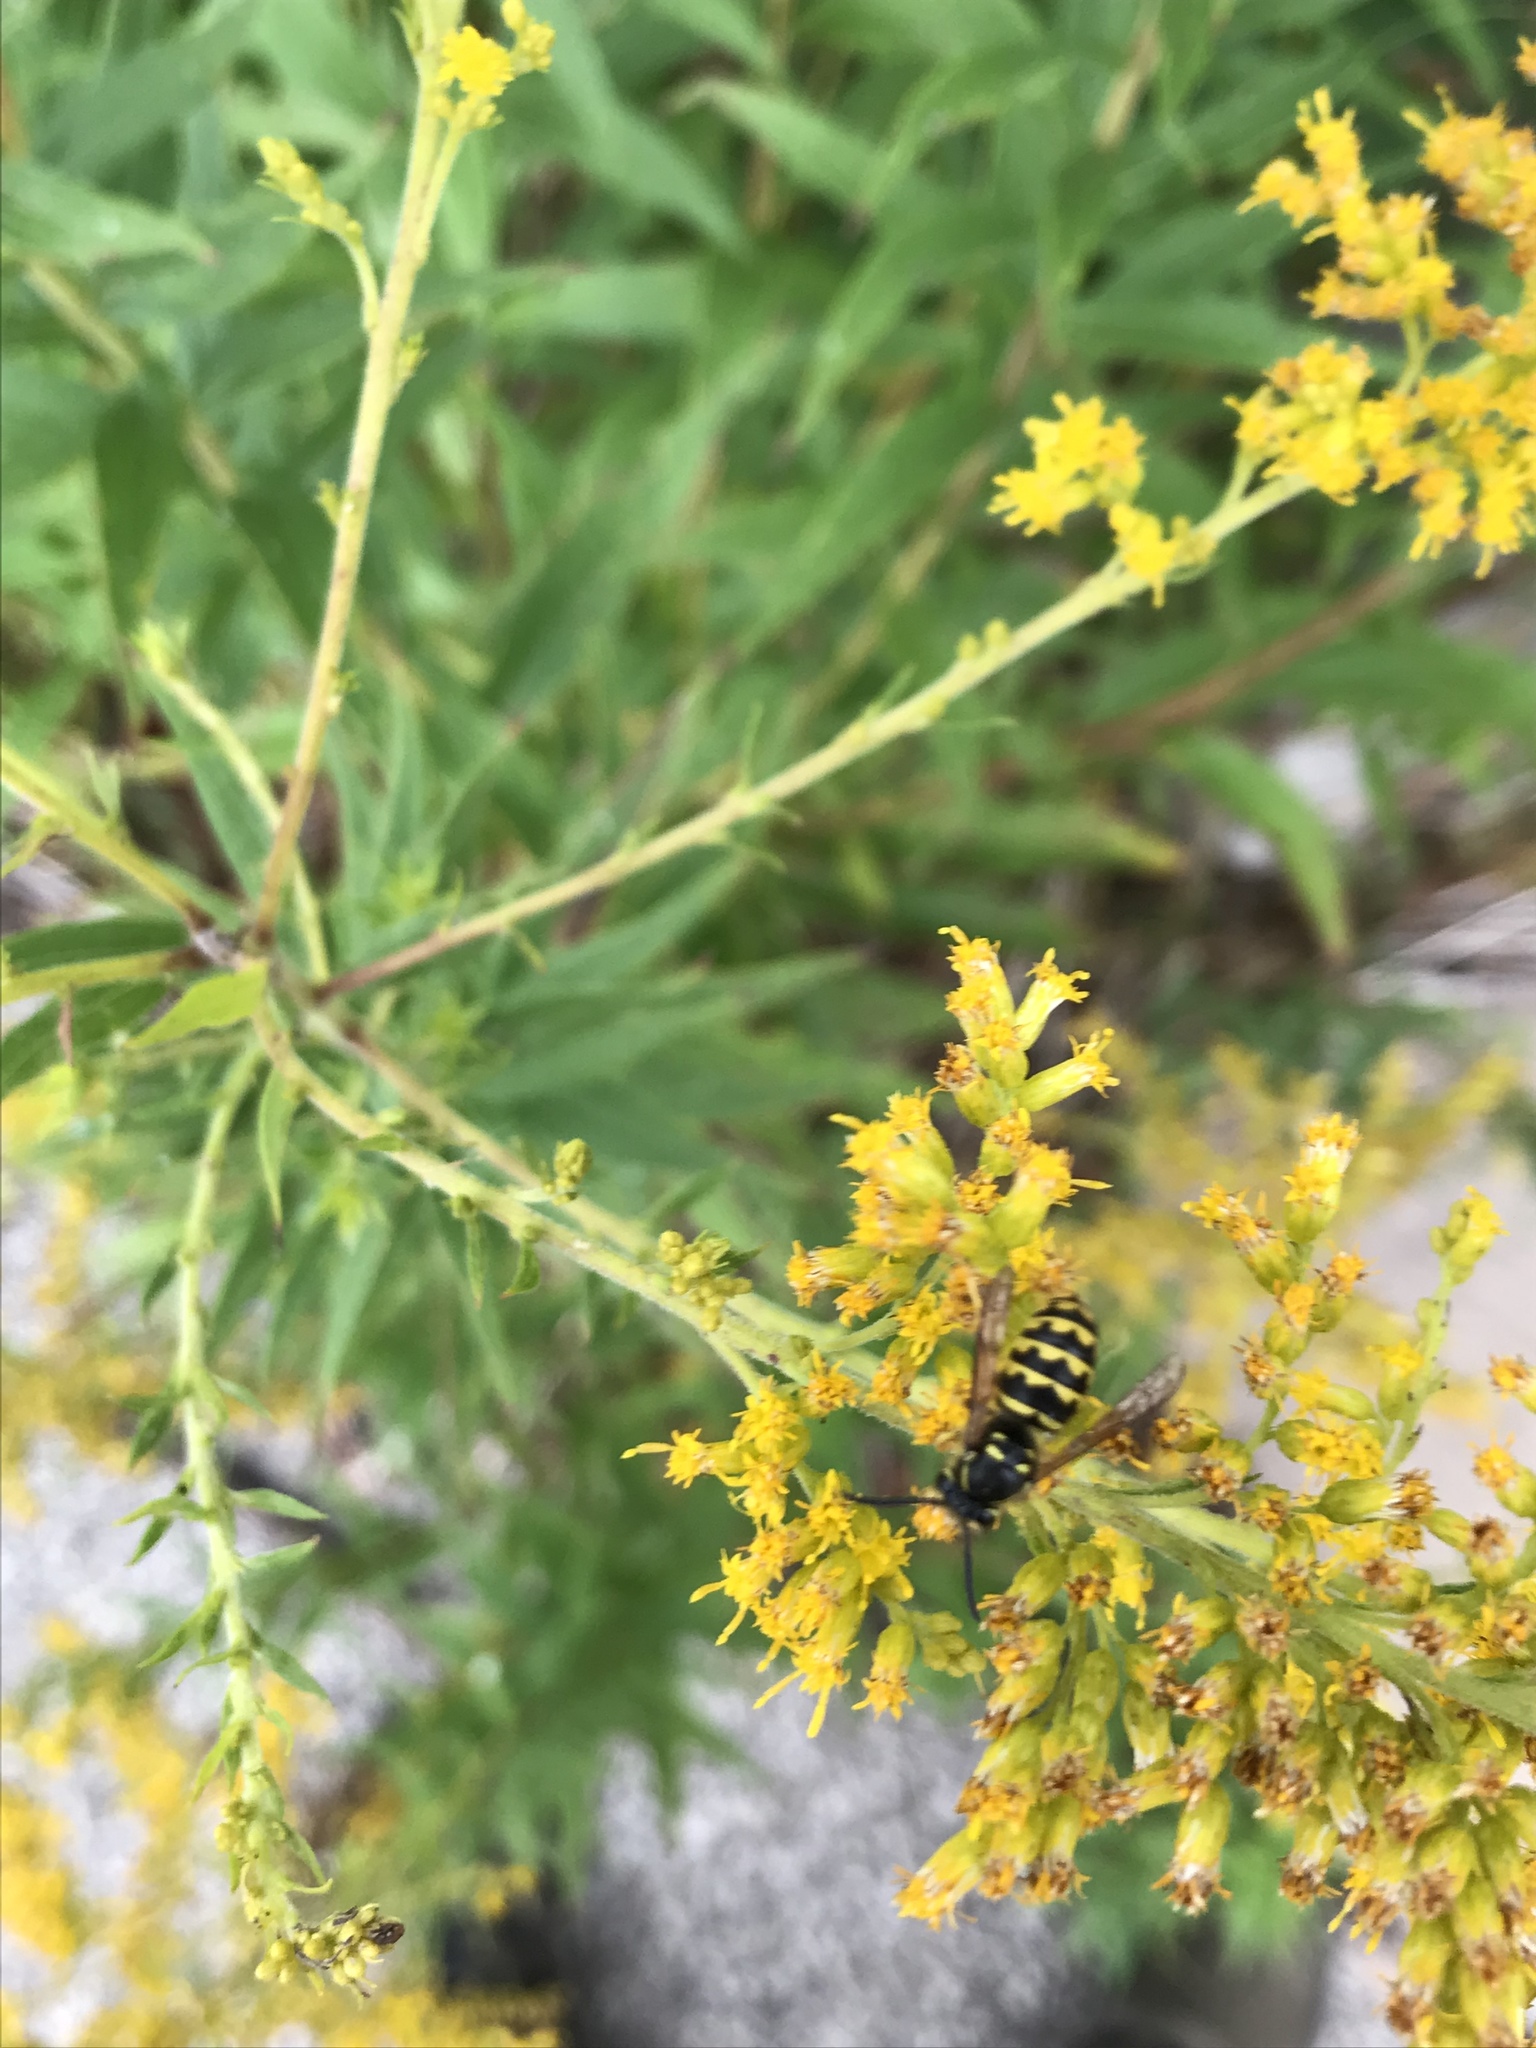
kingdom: Animalia
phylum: Arthropoda
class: Insecta
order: Hymenoptera
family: Vespidae
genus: Dolichovespula
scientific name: Dolichovespula arenaria
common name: Aerial yellowjacket
